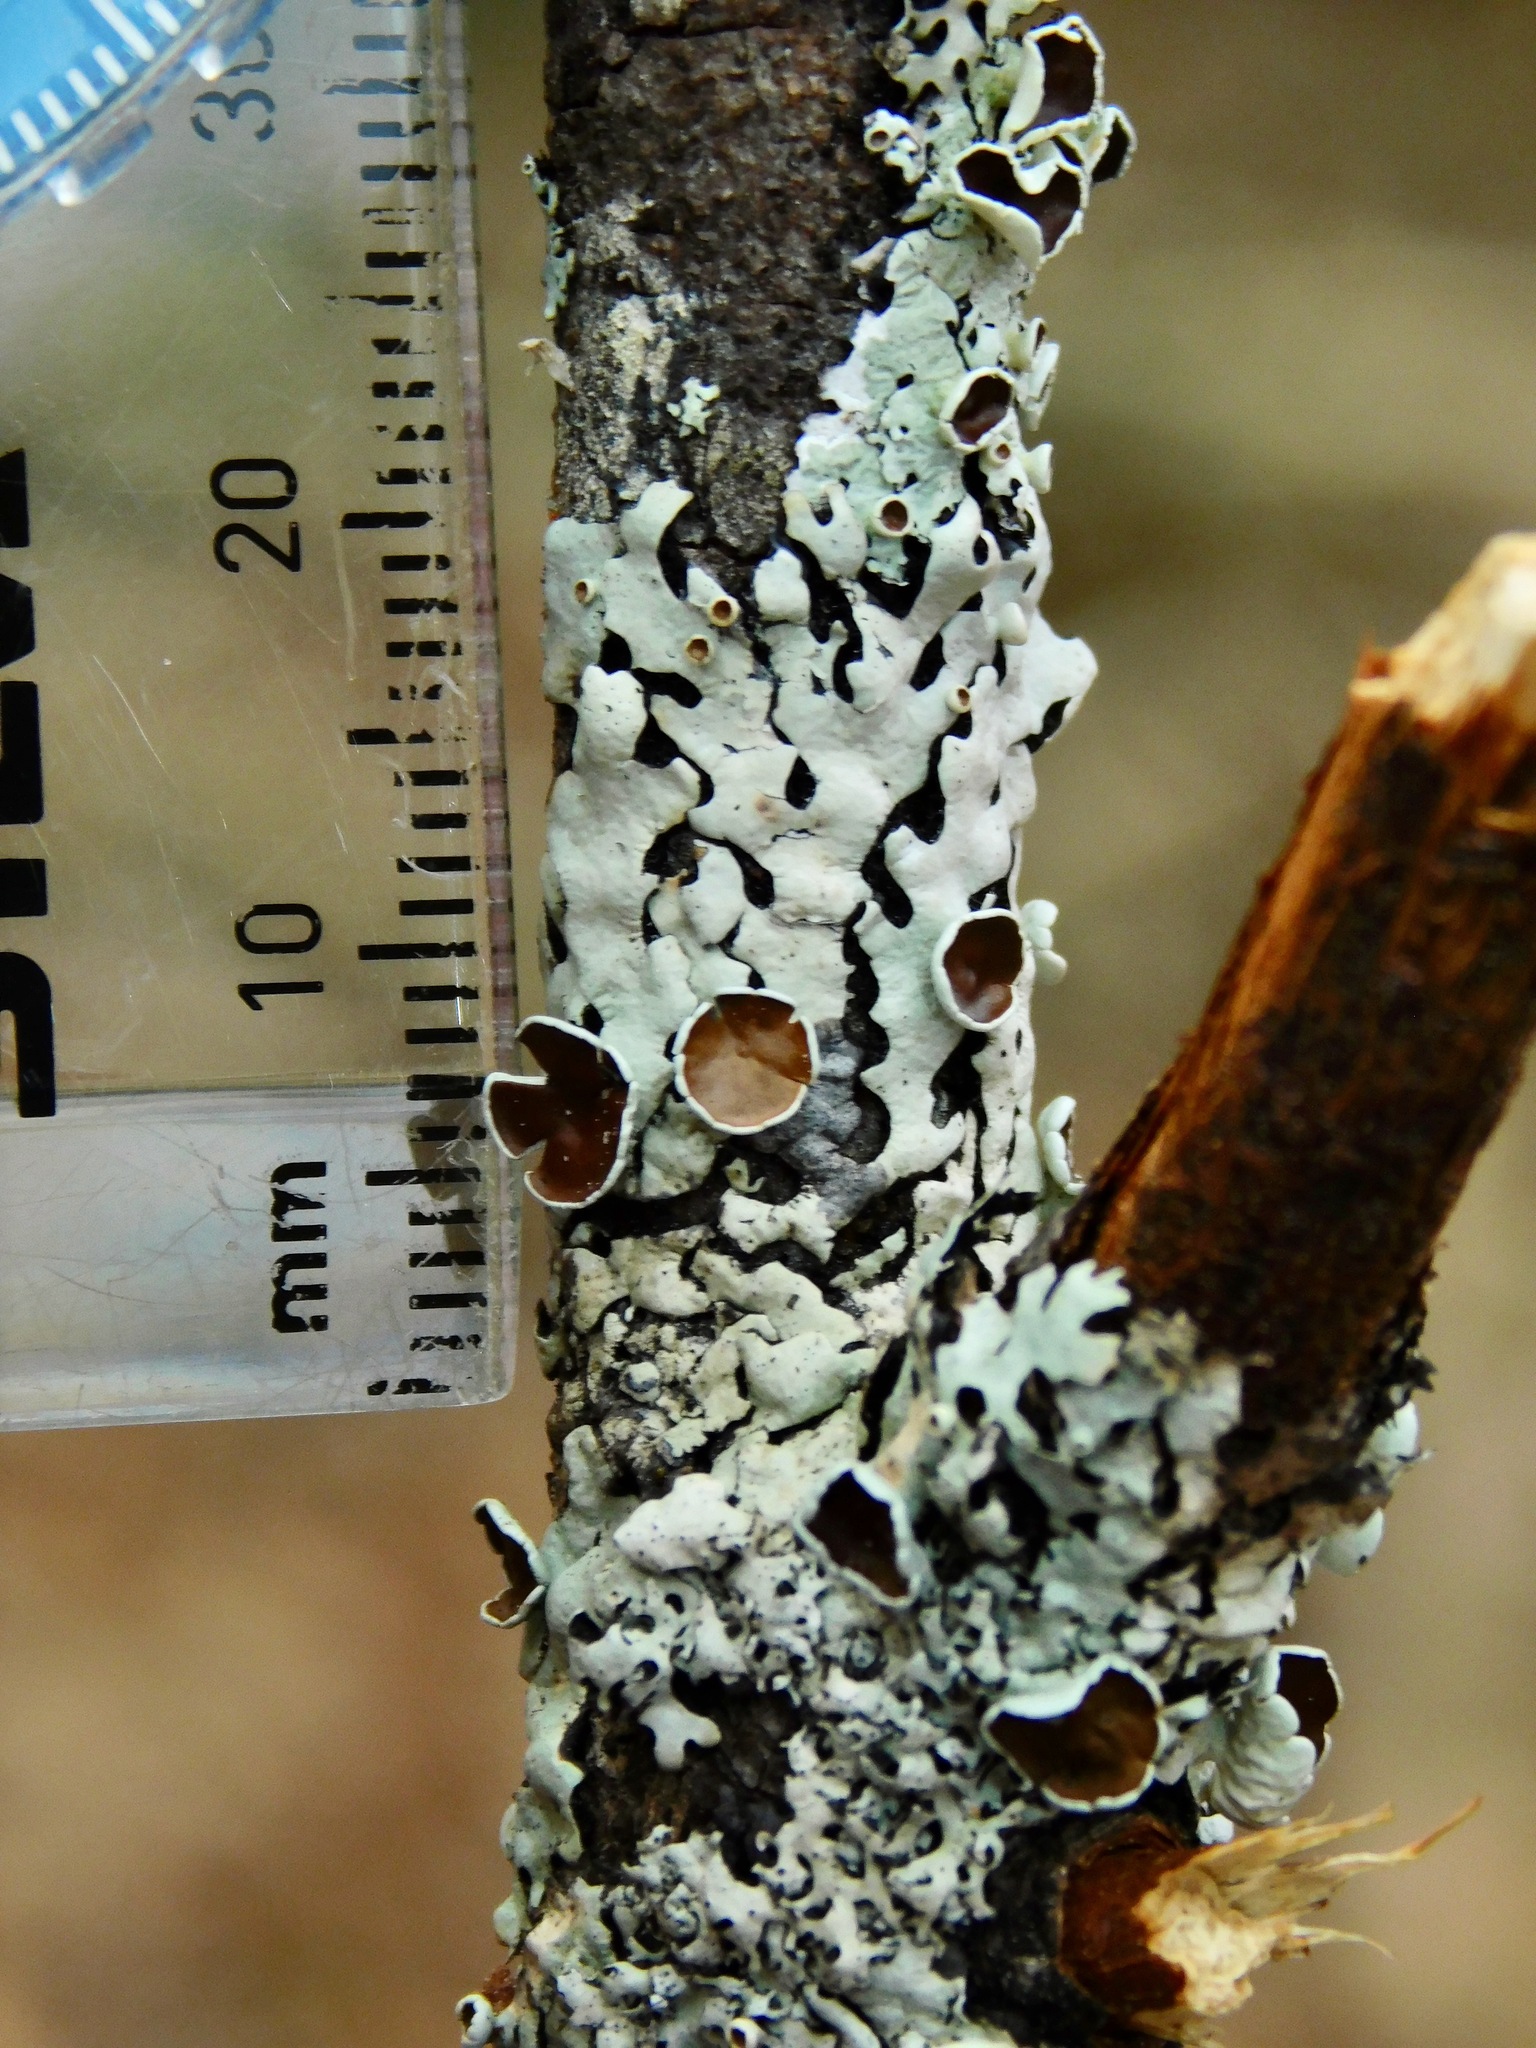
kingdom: Fungi
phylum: Ascomycota
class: Lecanoromycetes
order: Lecanorales
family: Parmeliaceae
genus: Hypotrachyna
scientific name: Hypotrachyna livida
